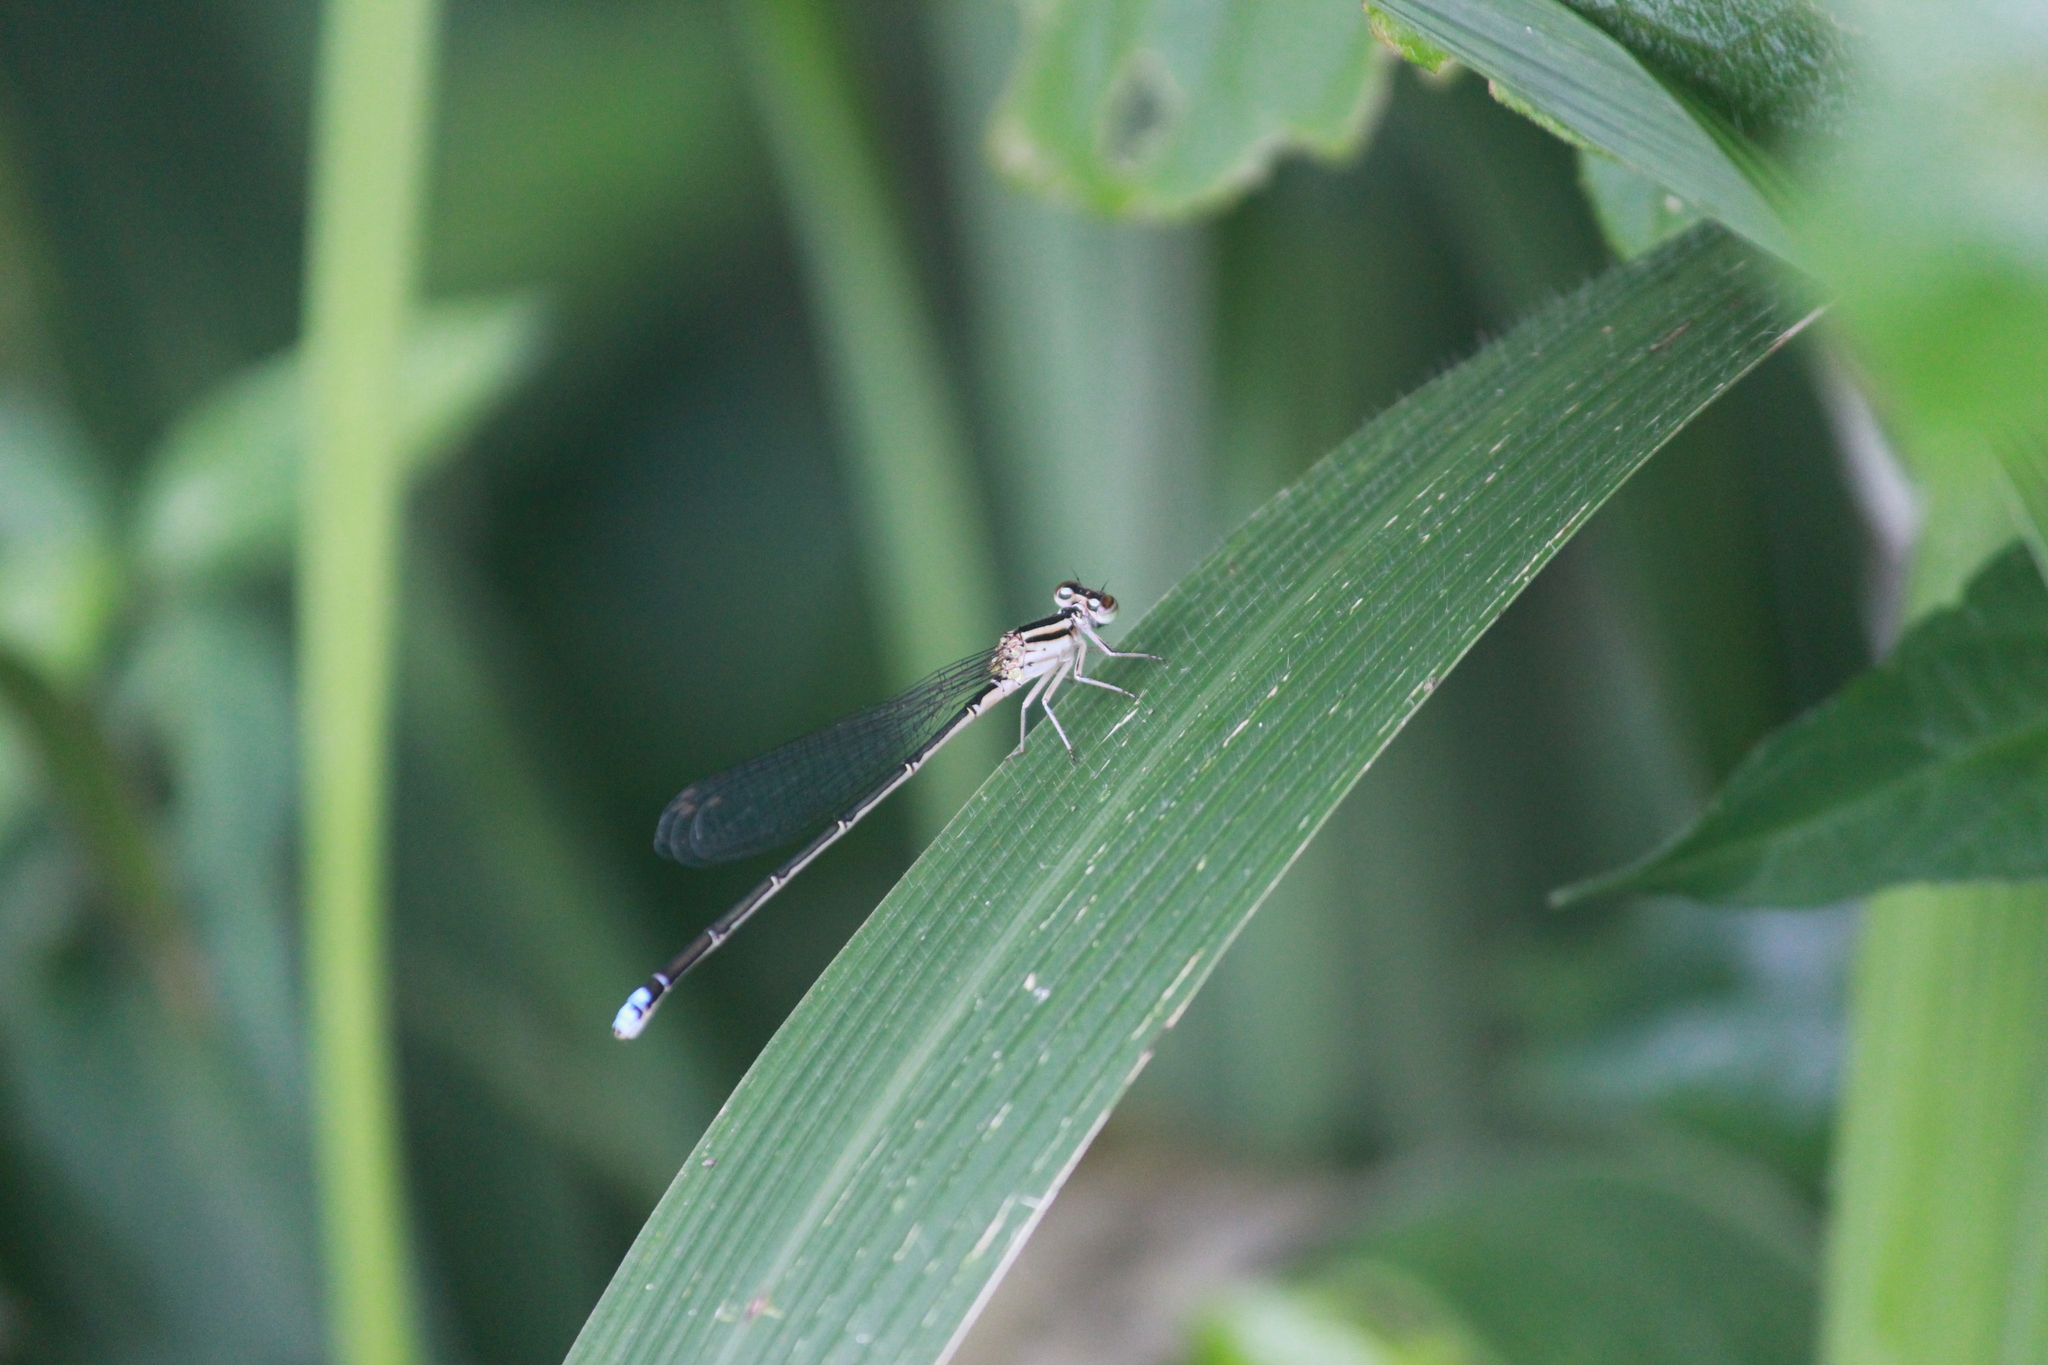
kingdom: Animalia
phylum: Arthropoda
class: Insecta
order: Odonata
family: Coenagrionidae
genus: Pseudagrion
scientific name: Pseudagrion kersteni
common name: Powder-faced sprite
